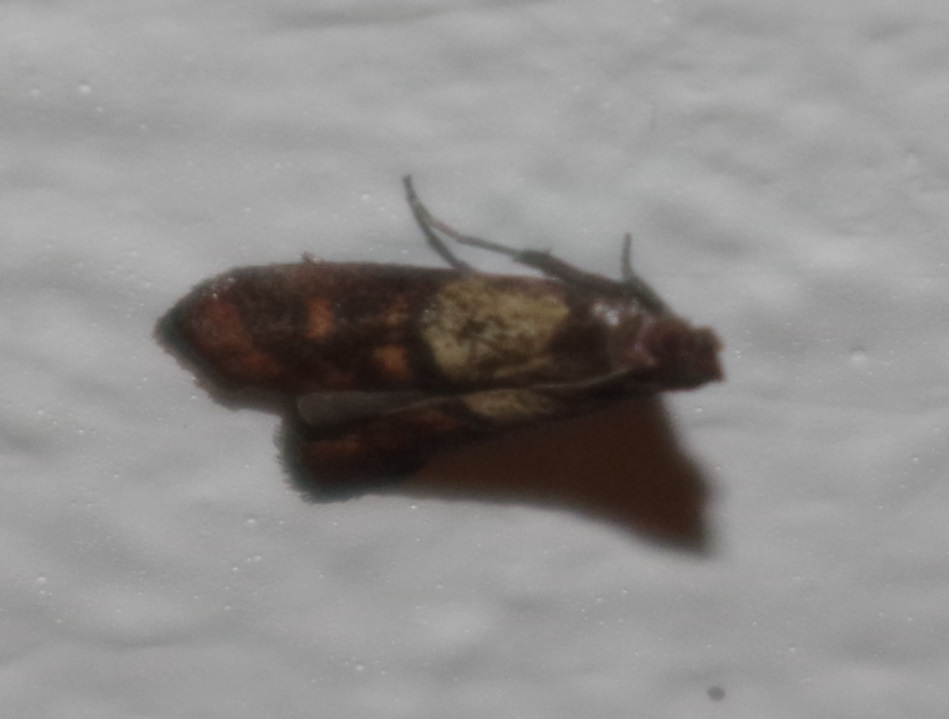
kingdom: Animalia
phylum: Arthropoda
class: Insecta
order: Lepidoptera
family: Pyralidae
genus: Plodia
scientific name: Plodia interpunctella
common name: Indian meal moth
